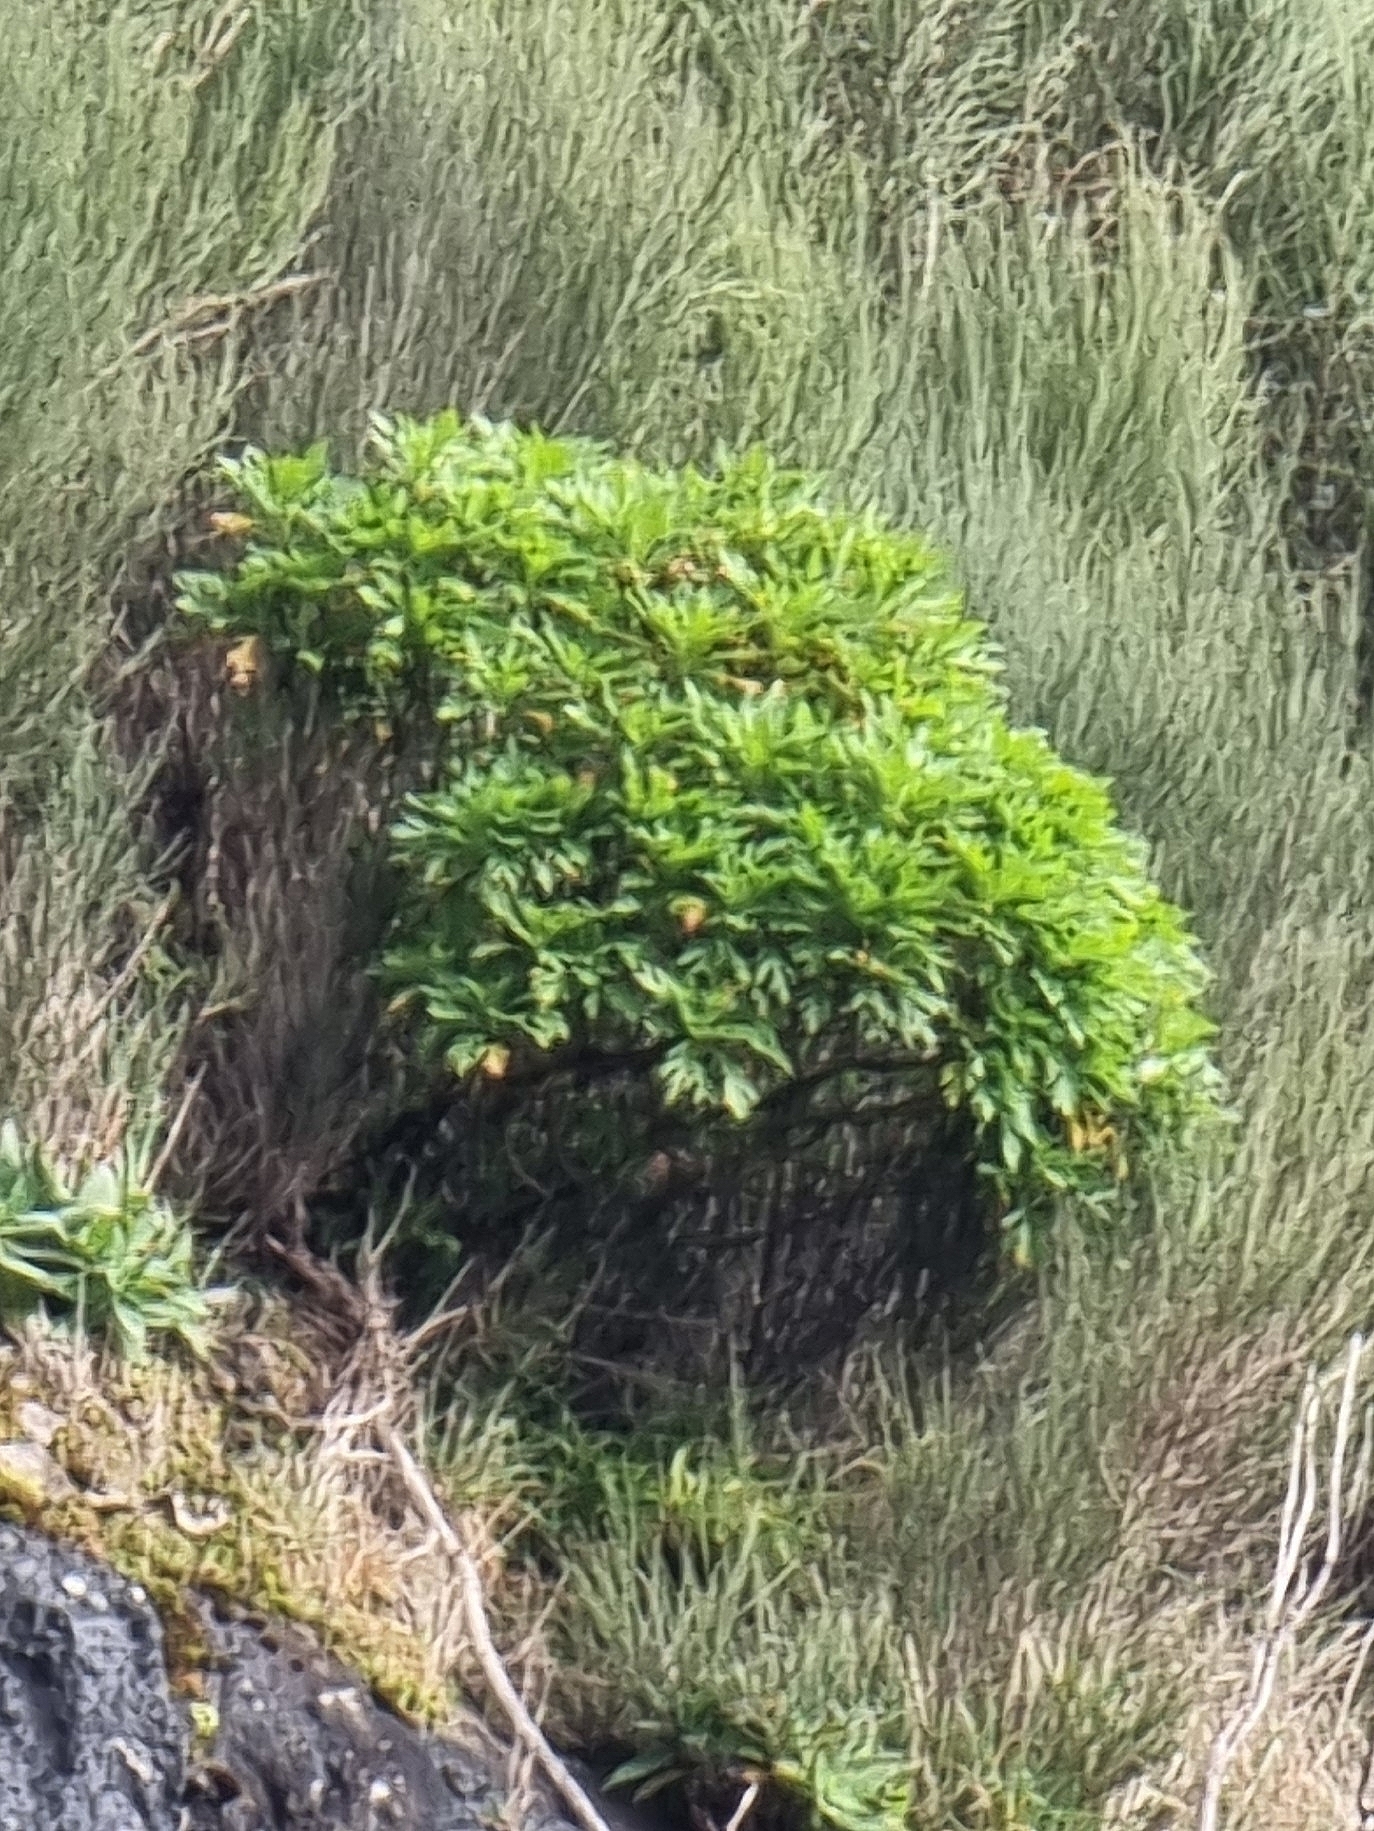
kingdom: Plantae
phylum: Tracheophyta
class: Magnoliopsida
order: Asterales
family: Asteraceae
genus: Argyranthemum
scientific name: Argyranthemum pinnatifidum
